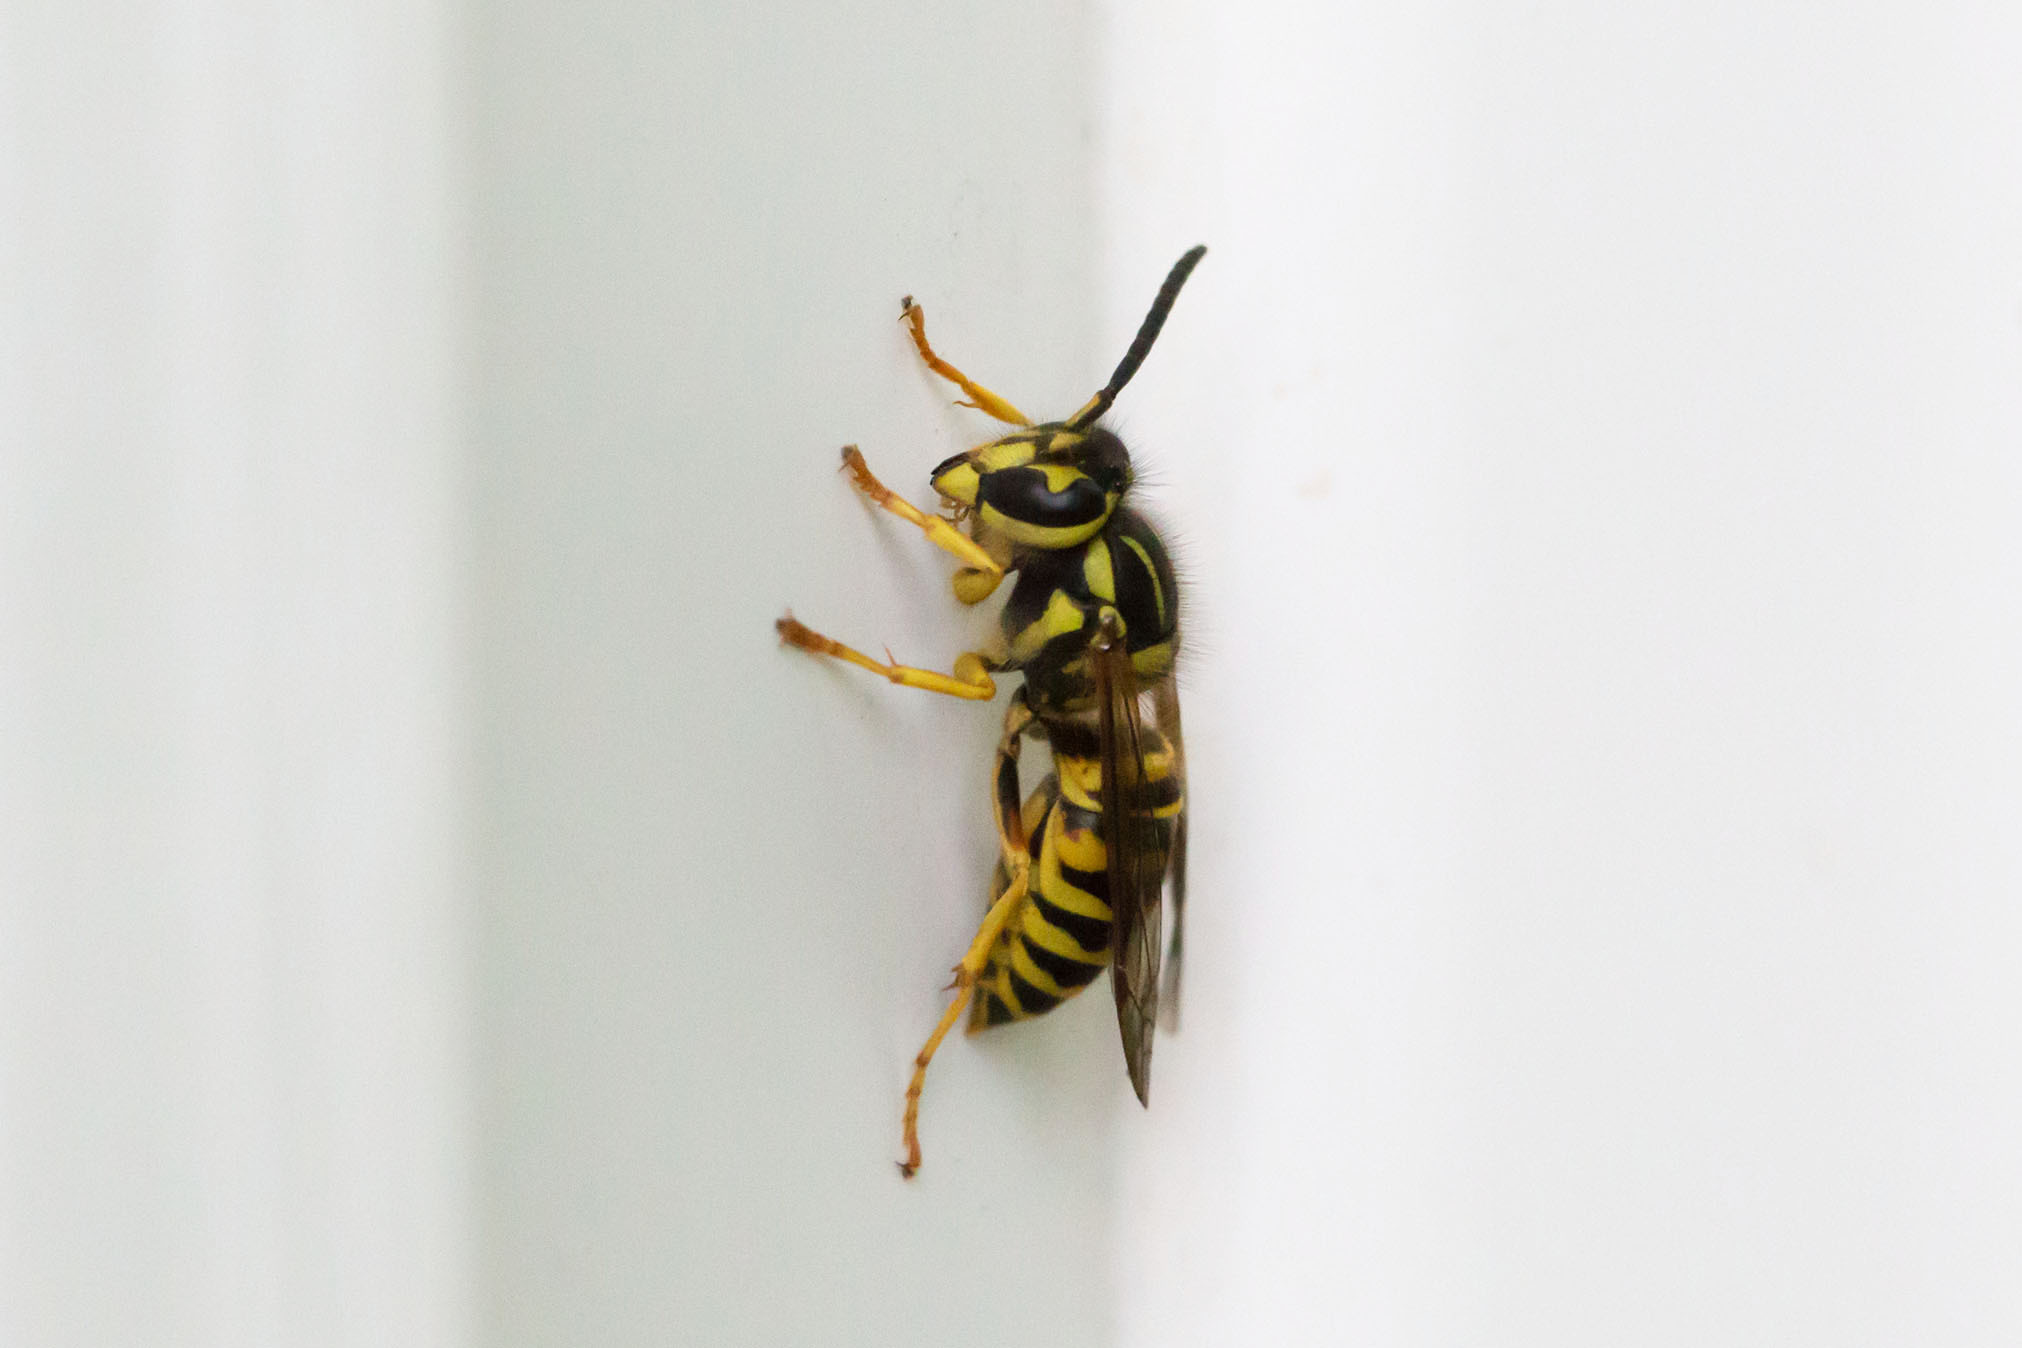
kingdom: Animalia
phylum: Arthropoda
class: Insecta
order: Hymenoptera
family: Vespidae
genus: Vespula
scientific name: Vespula squamosa
